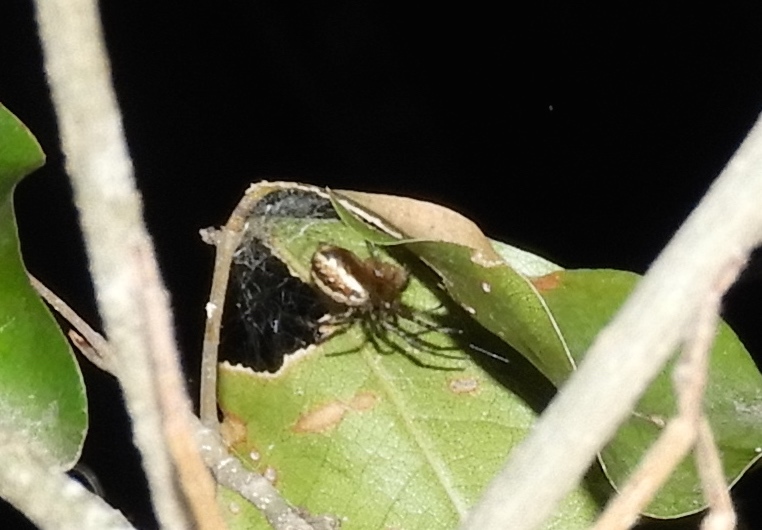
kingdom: Animalia
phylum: Arthropoda
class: Arachnida
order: Araneae
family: Araneidae
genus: Neoscona
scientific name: Neoscona
